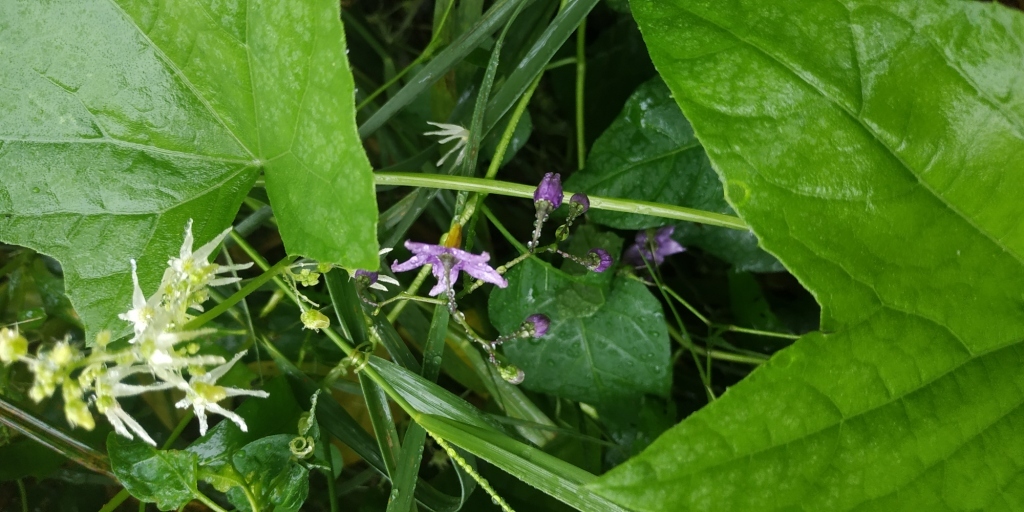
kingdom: Plantae
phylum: Tracheophyta
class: Magnoliopsida
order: Solanales
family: Solanaceae
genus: Solanum
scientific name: Solanum dulcamara
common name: Climbing nightshade
